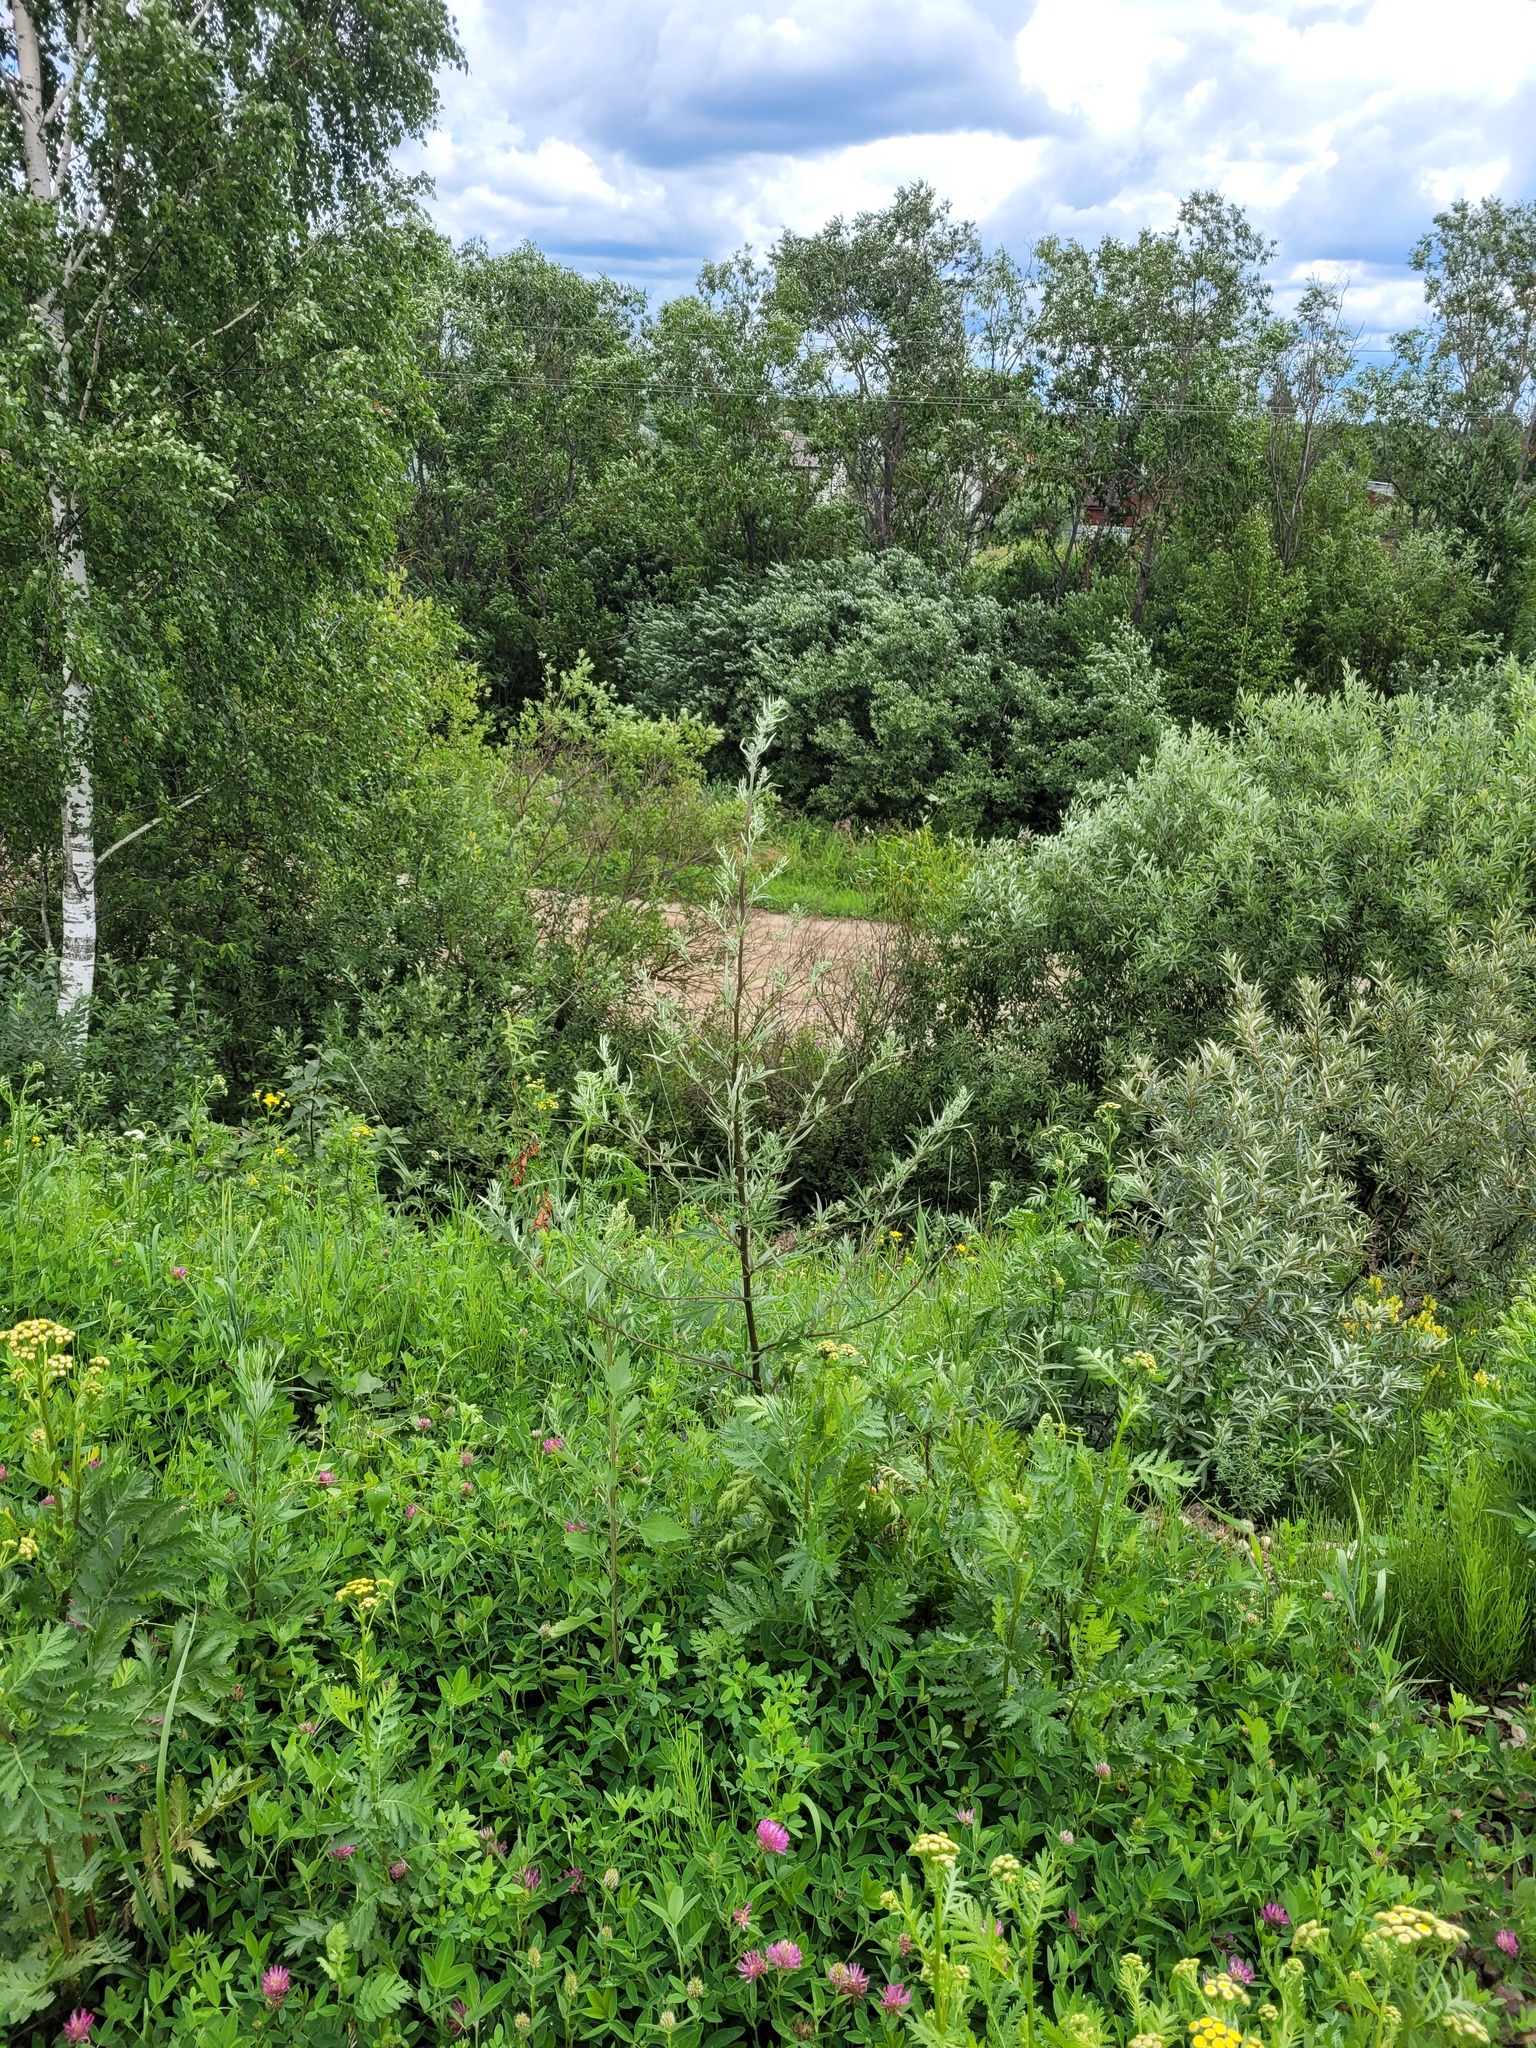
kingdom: Plantae
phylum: Tracheophyta
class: Magnoliopsida
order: Asterales
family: Asteraceae
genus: Artemisia
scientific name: Artemisia vulgaris
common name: Mugwort
